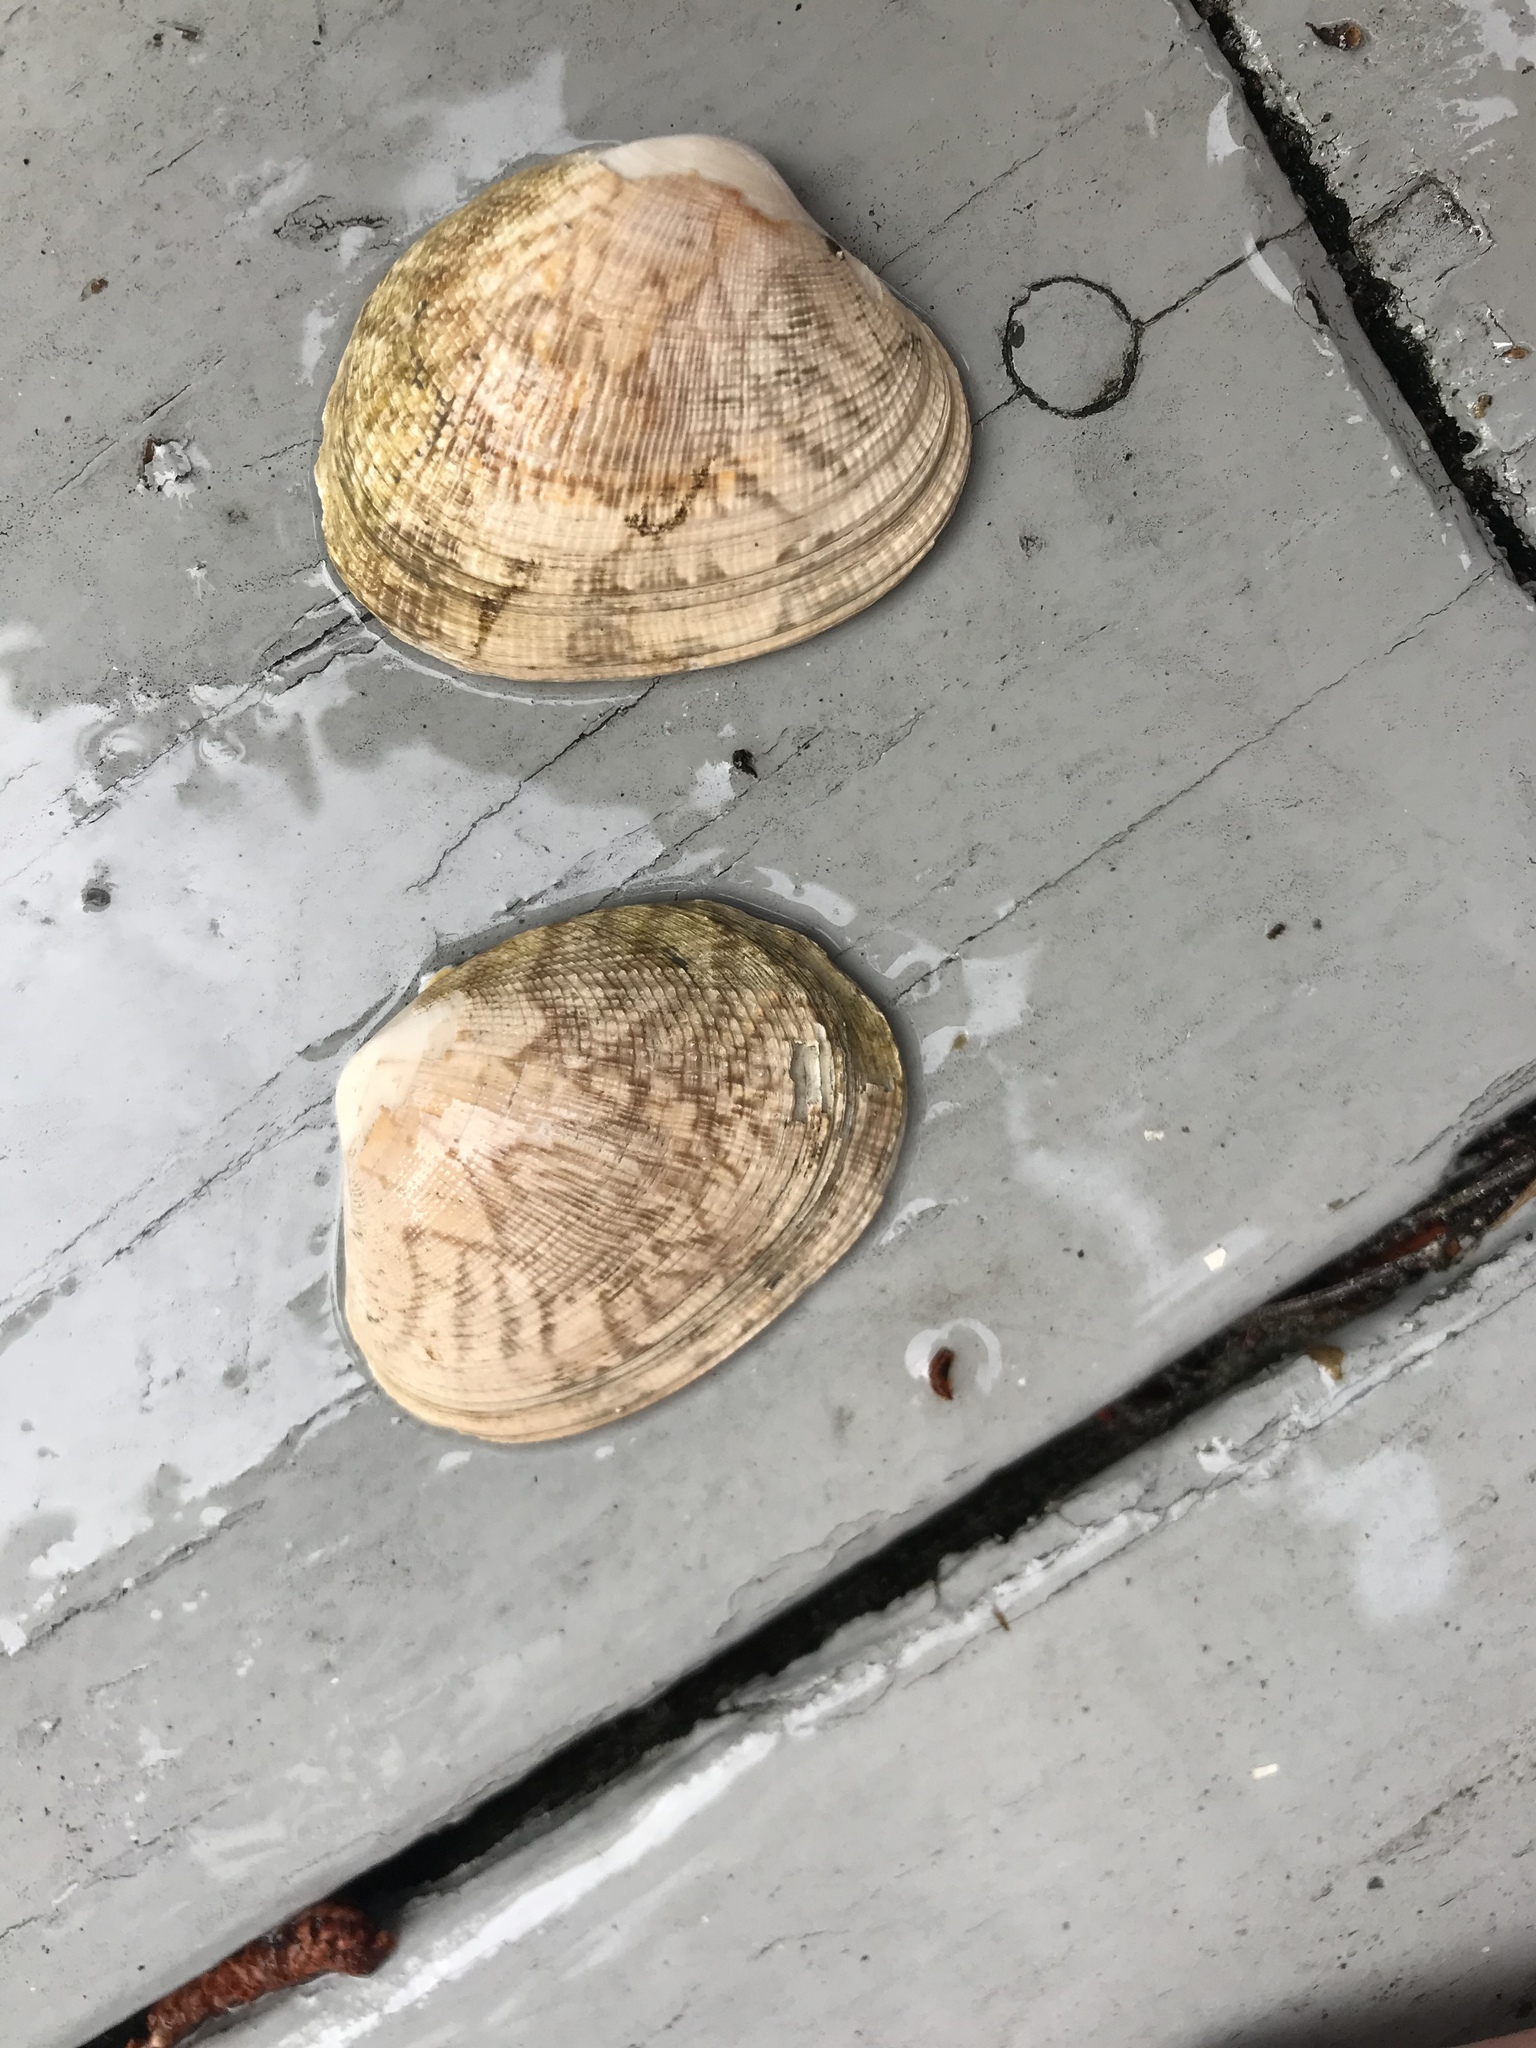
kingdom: Animalia
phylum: Mollusca
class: Bivalvia
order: Venerida
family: Veneridae
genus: Ruditapes
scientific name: Ruditapes philippinarum
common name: Manila clam
